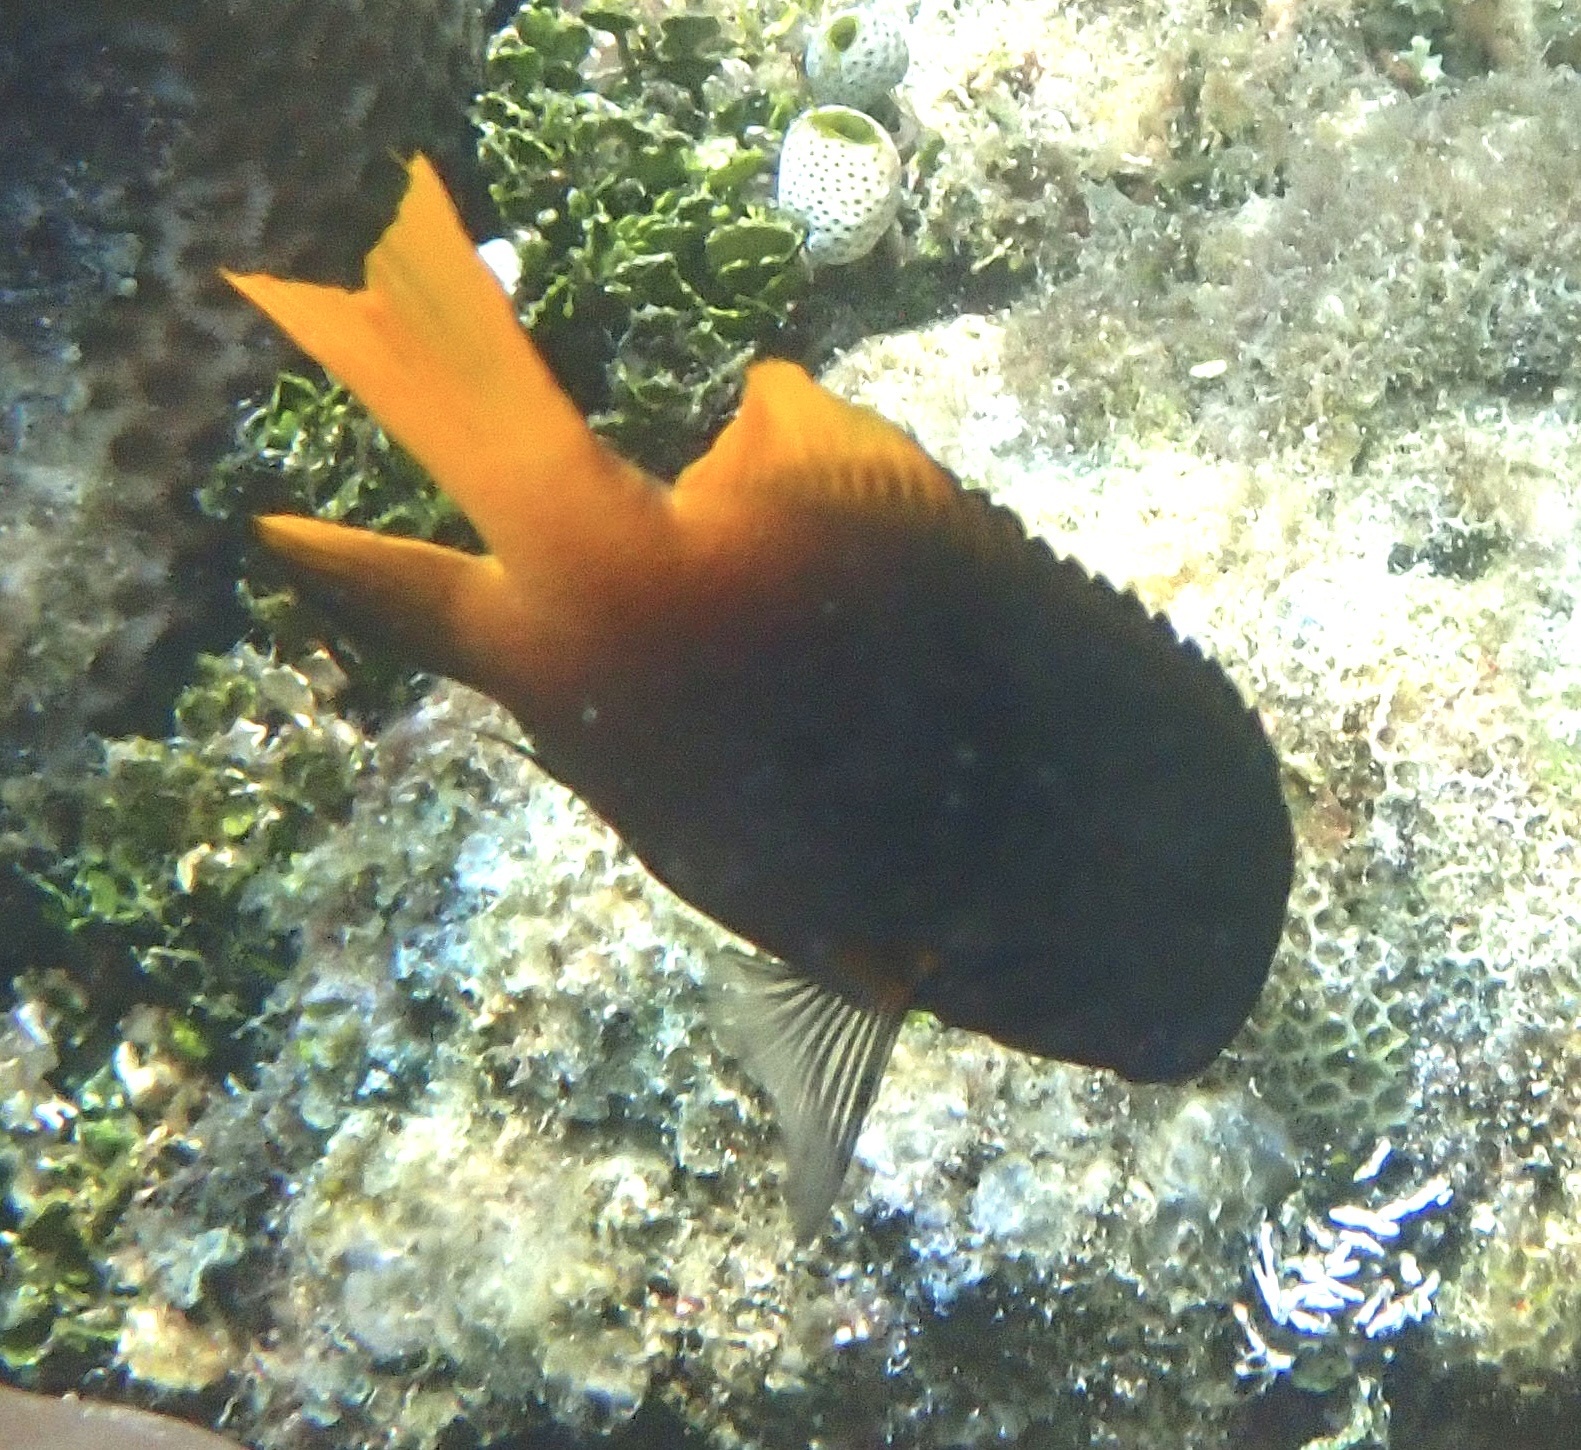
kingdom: Animalia
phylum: Chordata
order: Perciformes
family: Pomacentridae
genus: Neoglyphidodon
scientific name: Neoglyphidodon nigroris
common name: Behn's damsel
